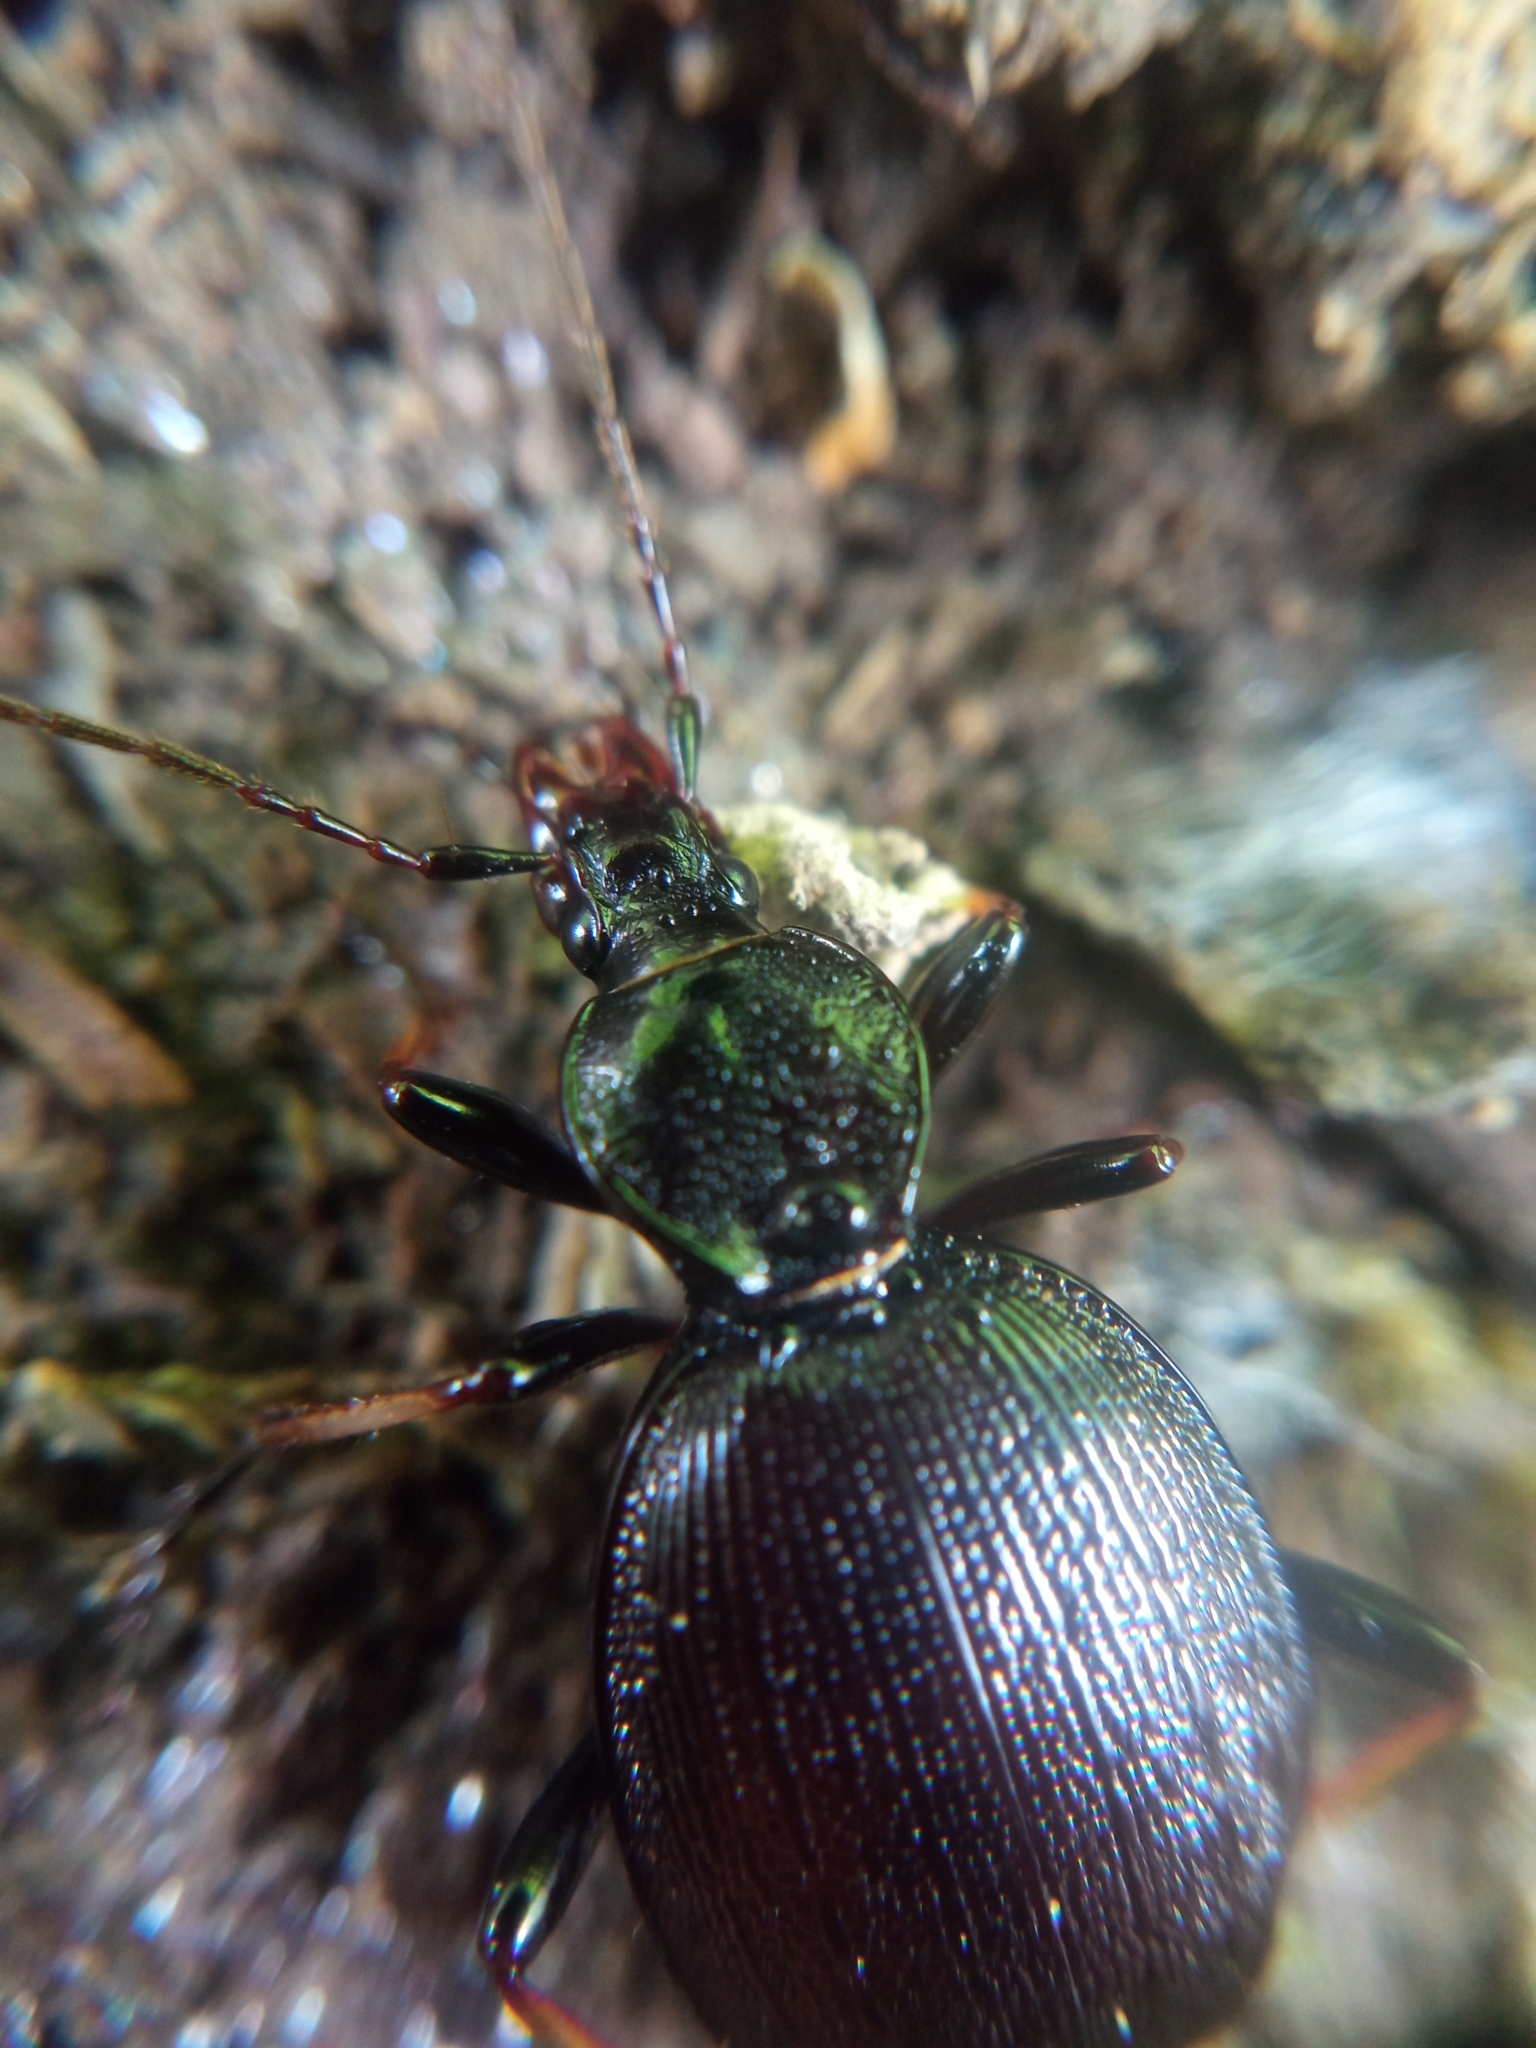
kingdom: Animalia
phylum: Arthropoda
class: Insecta
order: Coleoptera
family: Carabidae
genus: Cychrus
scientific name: Cychrus attenuatus
